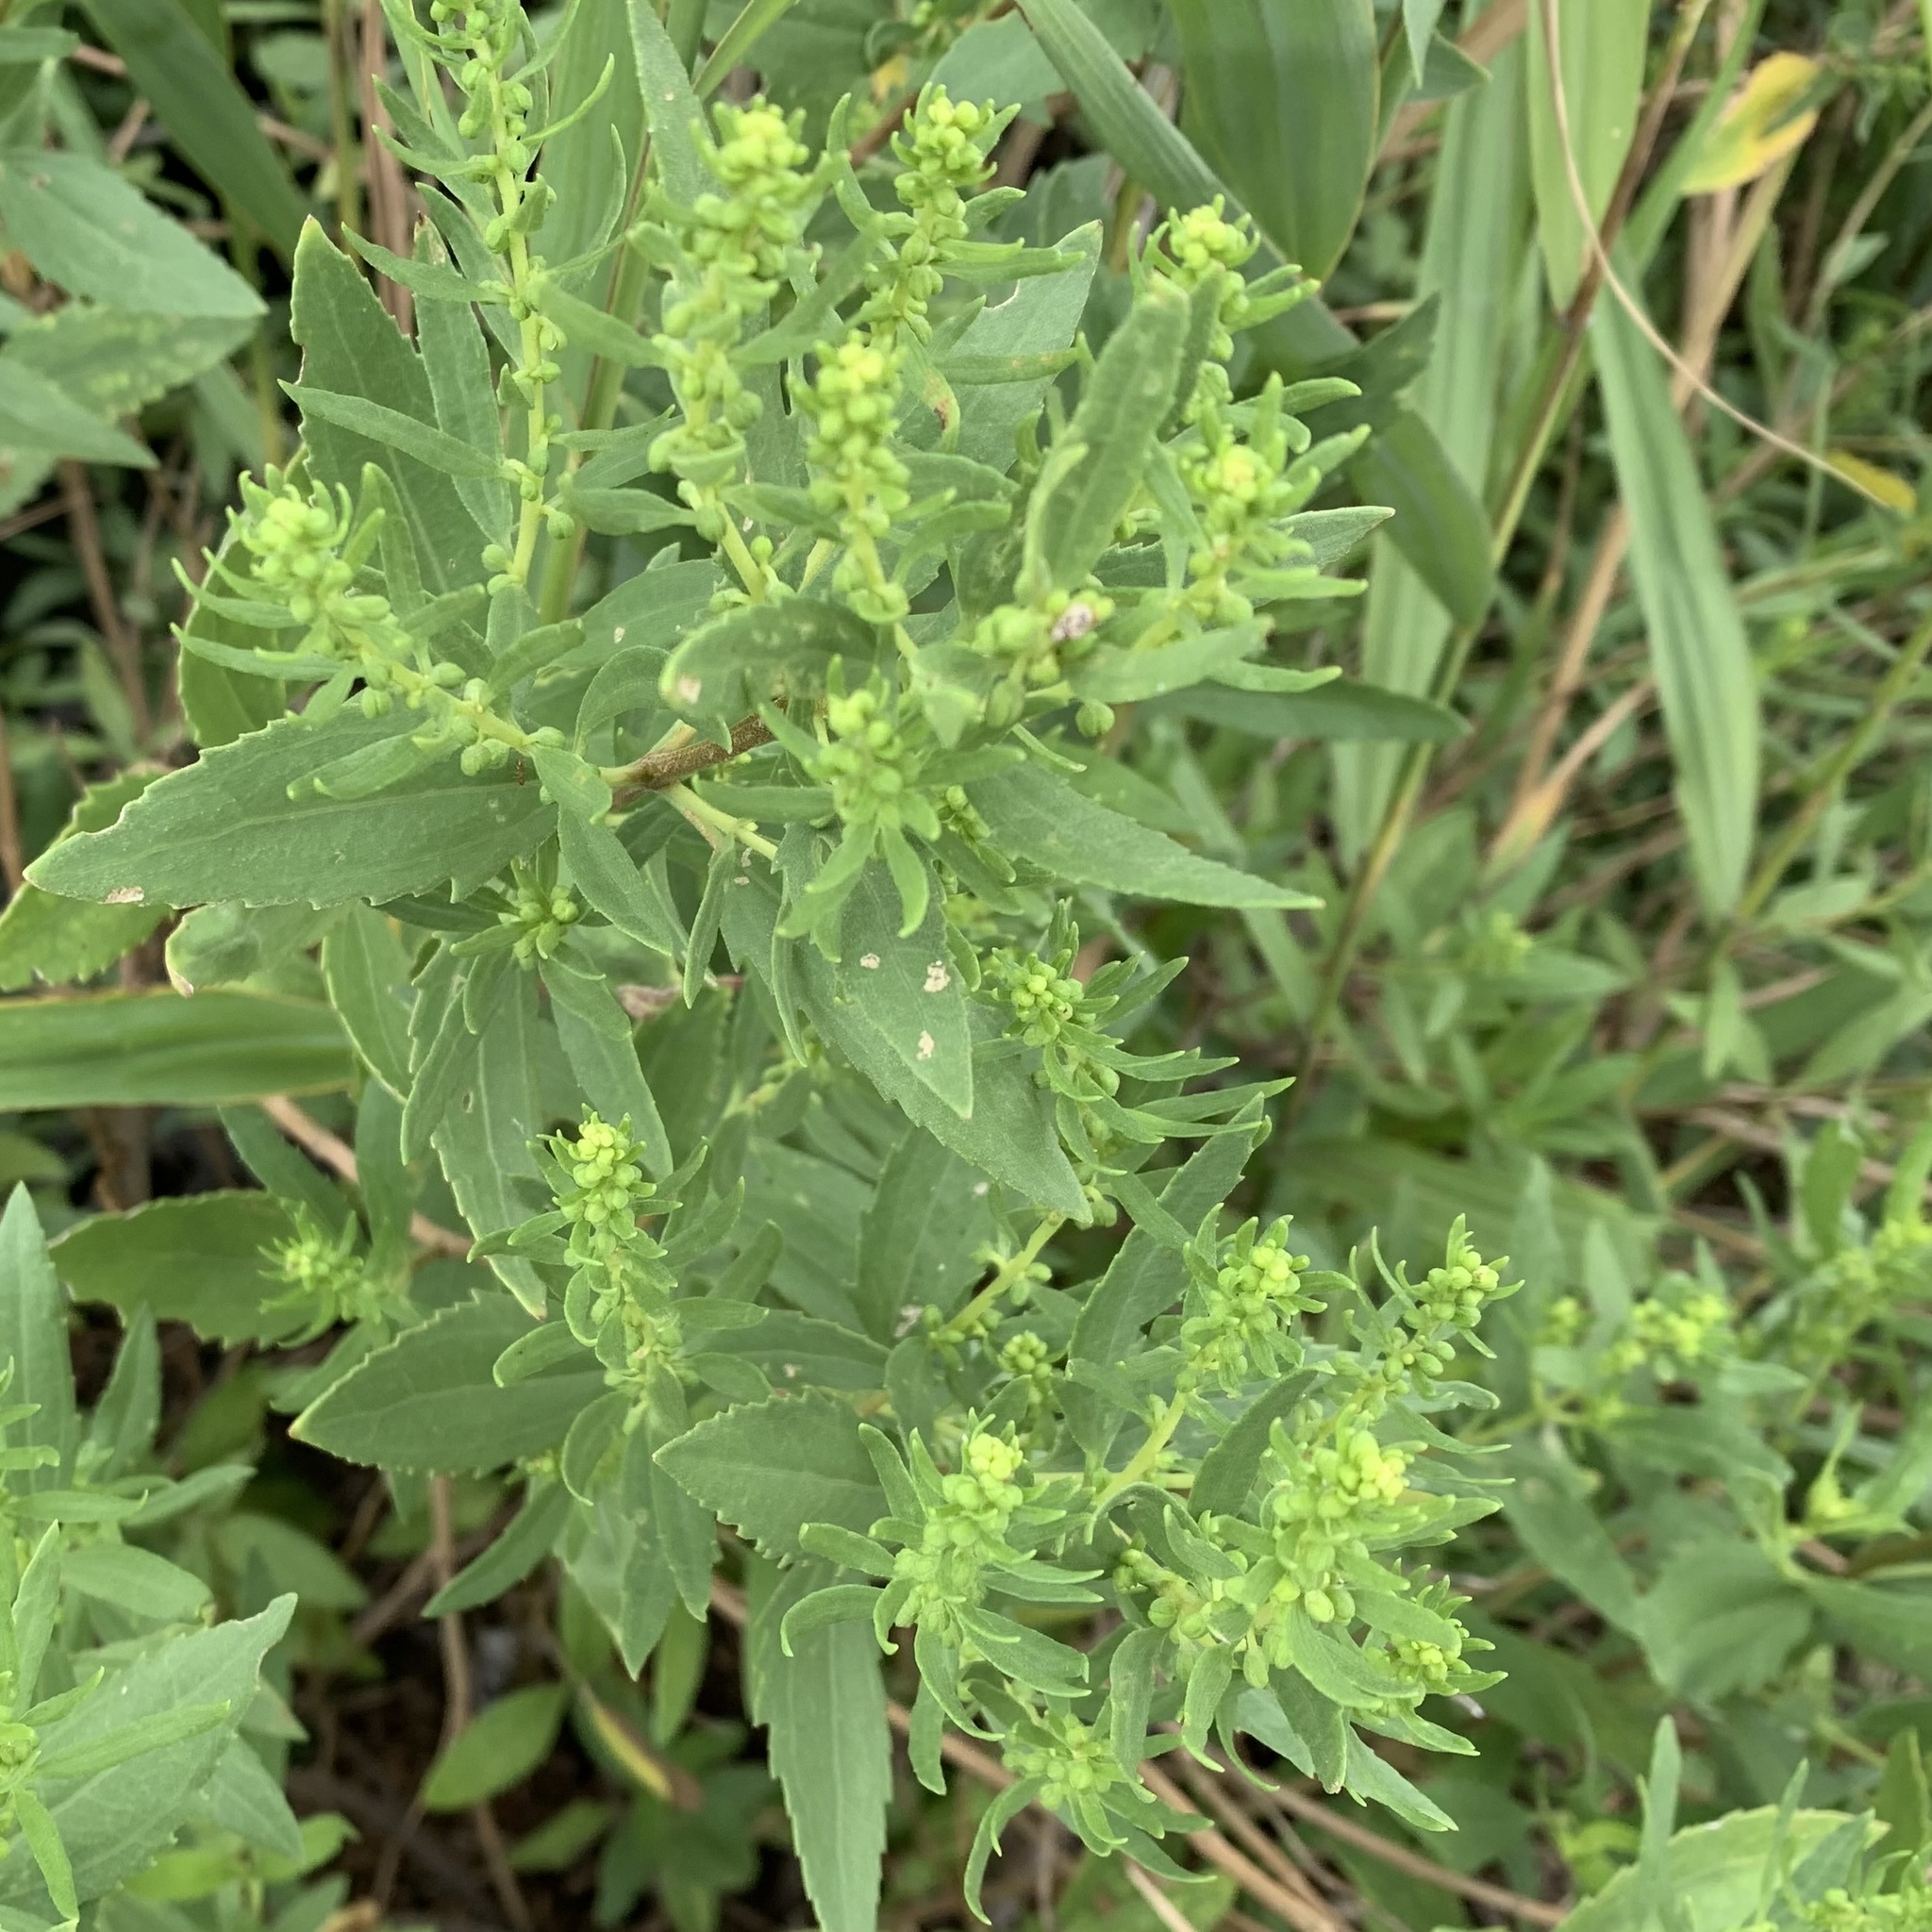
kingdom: Plantae
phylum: Tracheophyta
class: Magnoliopsida
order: Asterales
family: Asteraceae
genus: Iva
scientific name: Iva frutescens
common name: Big-leaved marsh-elder
